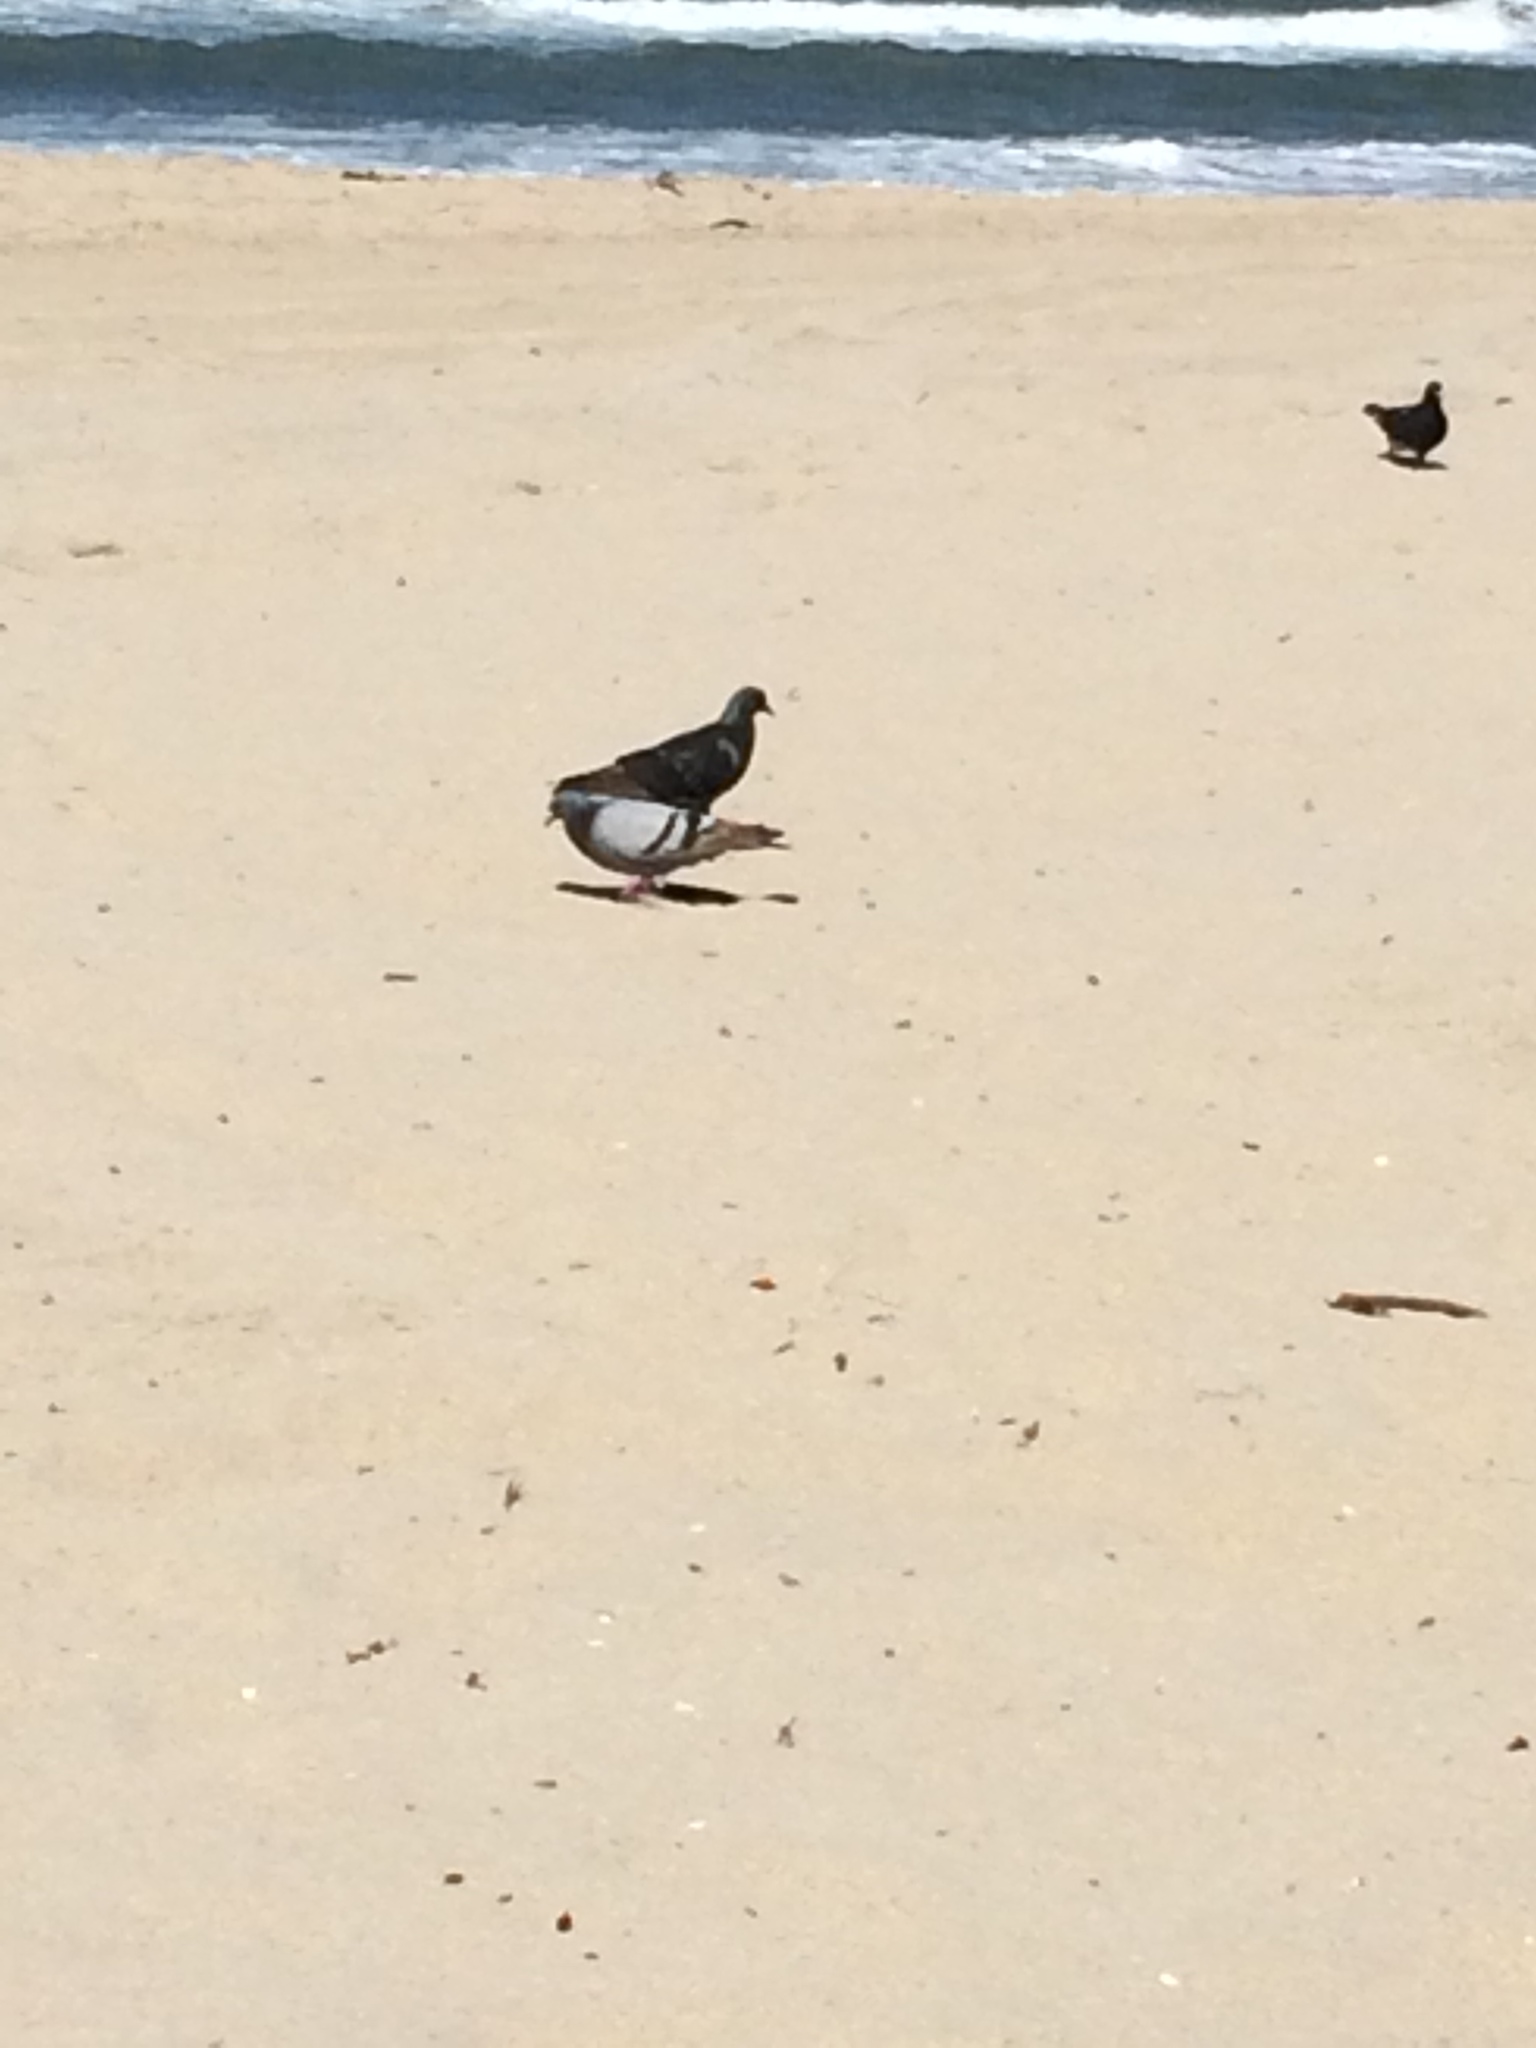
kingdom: Animalia
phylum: Chordata
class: Aves
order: Columbiformes
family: Columbidae
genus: Columba
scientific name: Columba livia
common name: Rock pigeon
